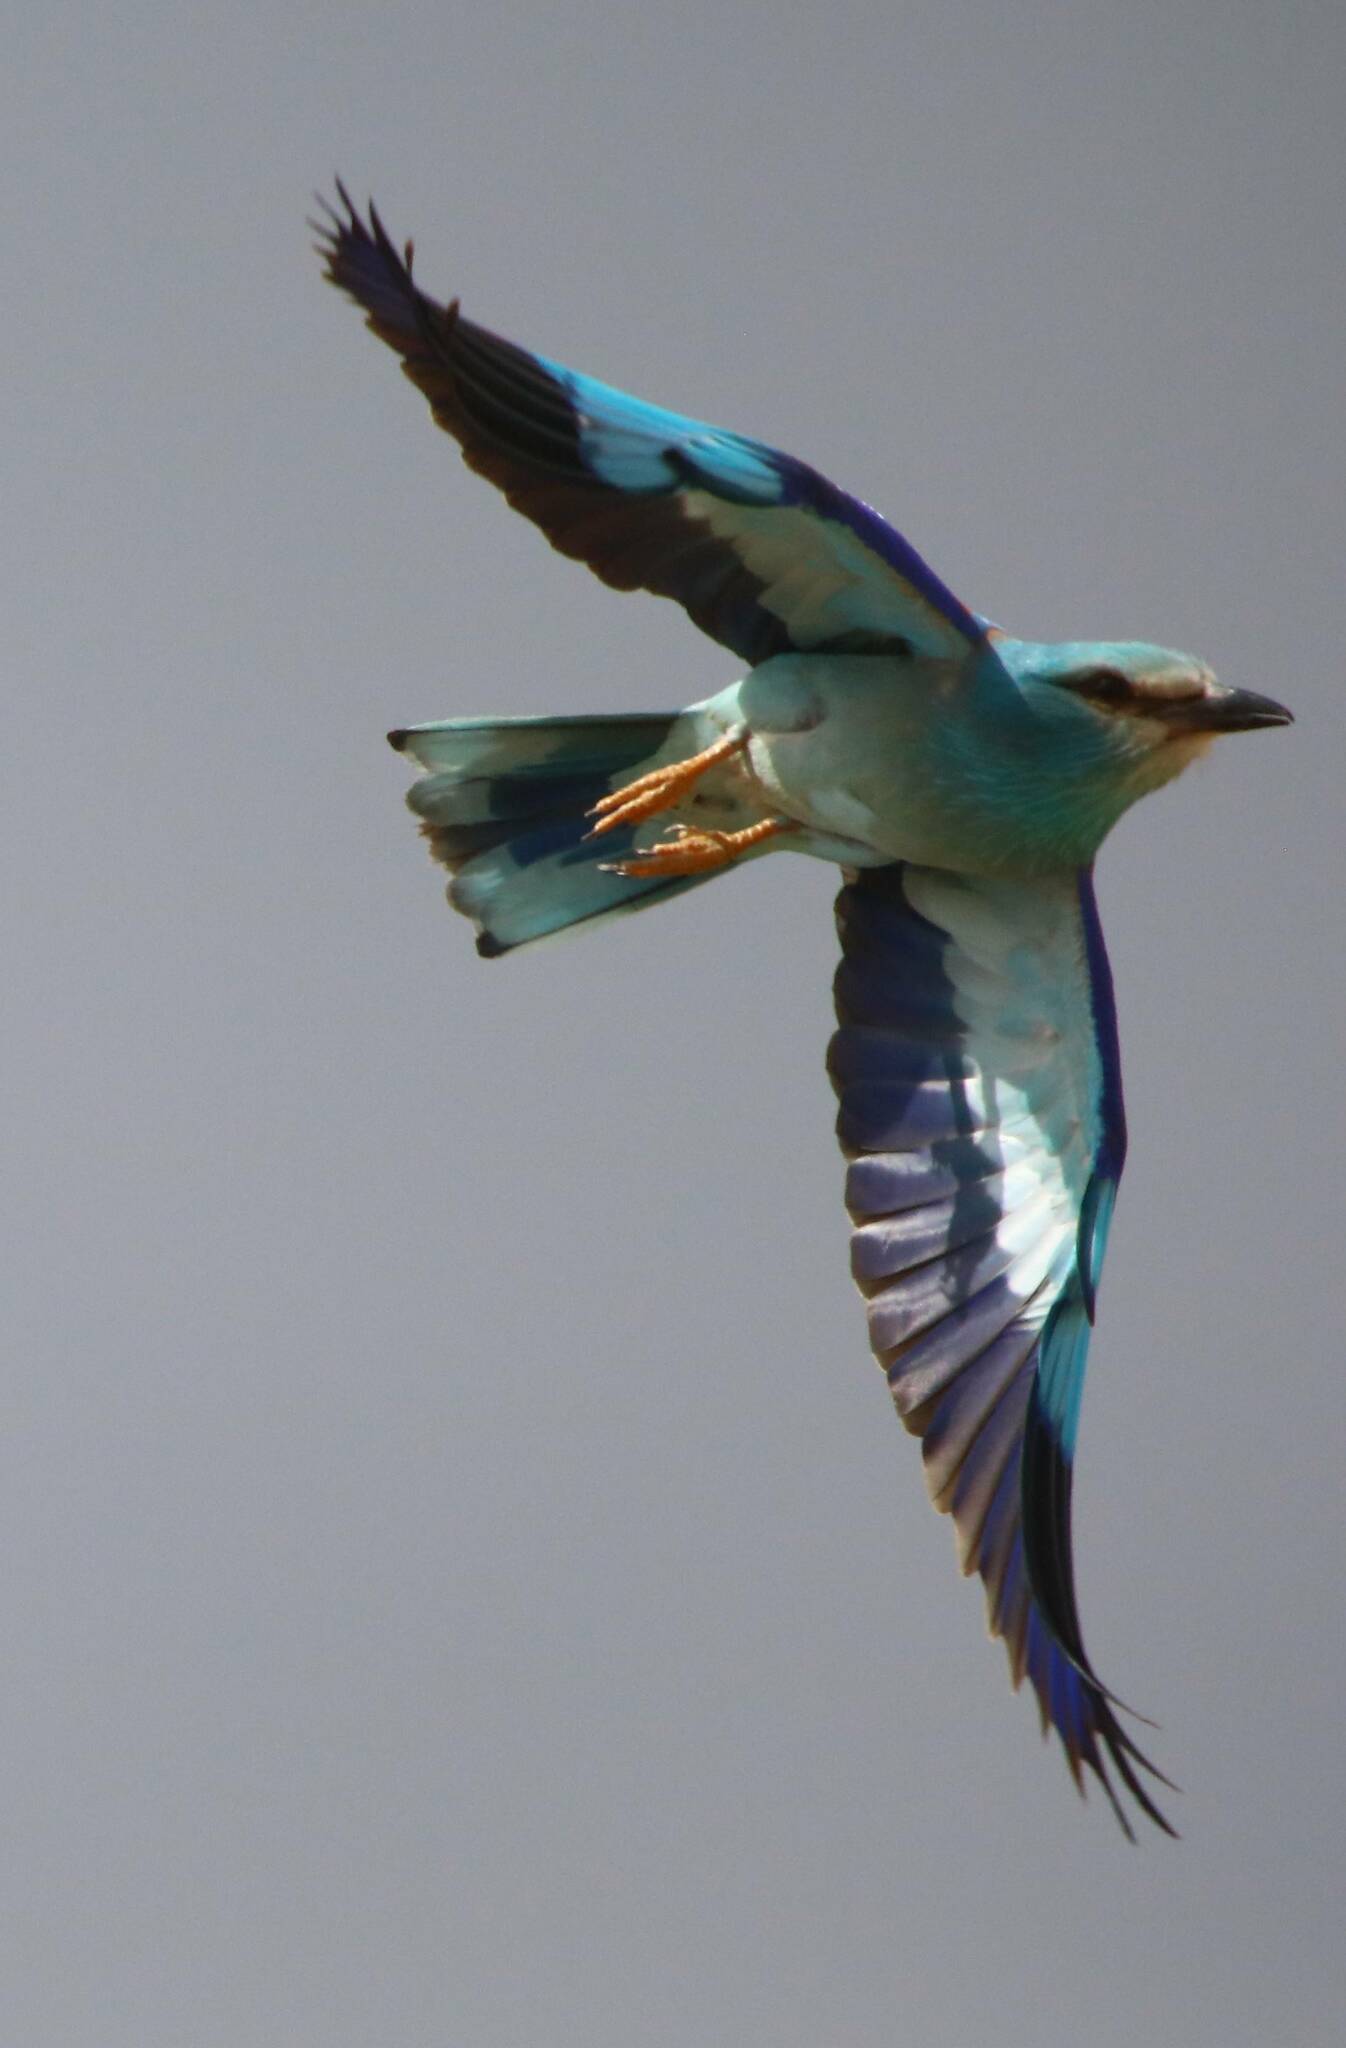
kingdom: Animalia
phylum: Chordata
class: Aves
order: Coraciiformes
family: Coraciidae
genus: Coracias
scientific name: Coracias garrulus
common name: European roller
